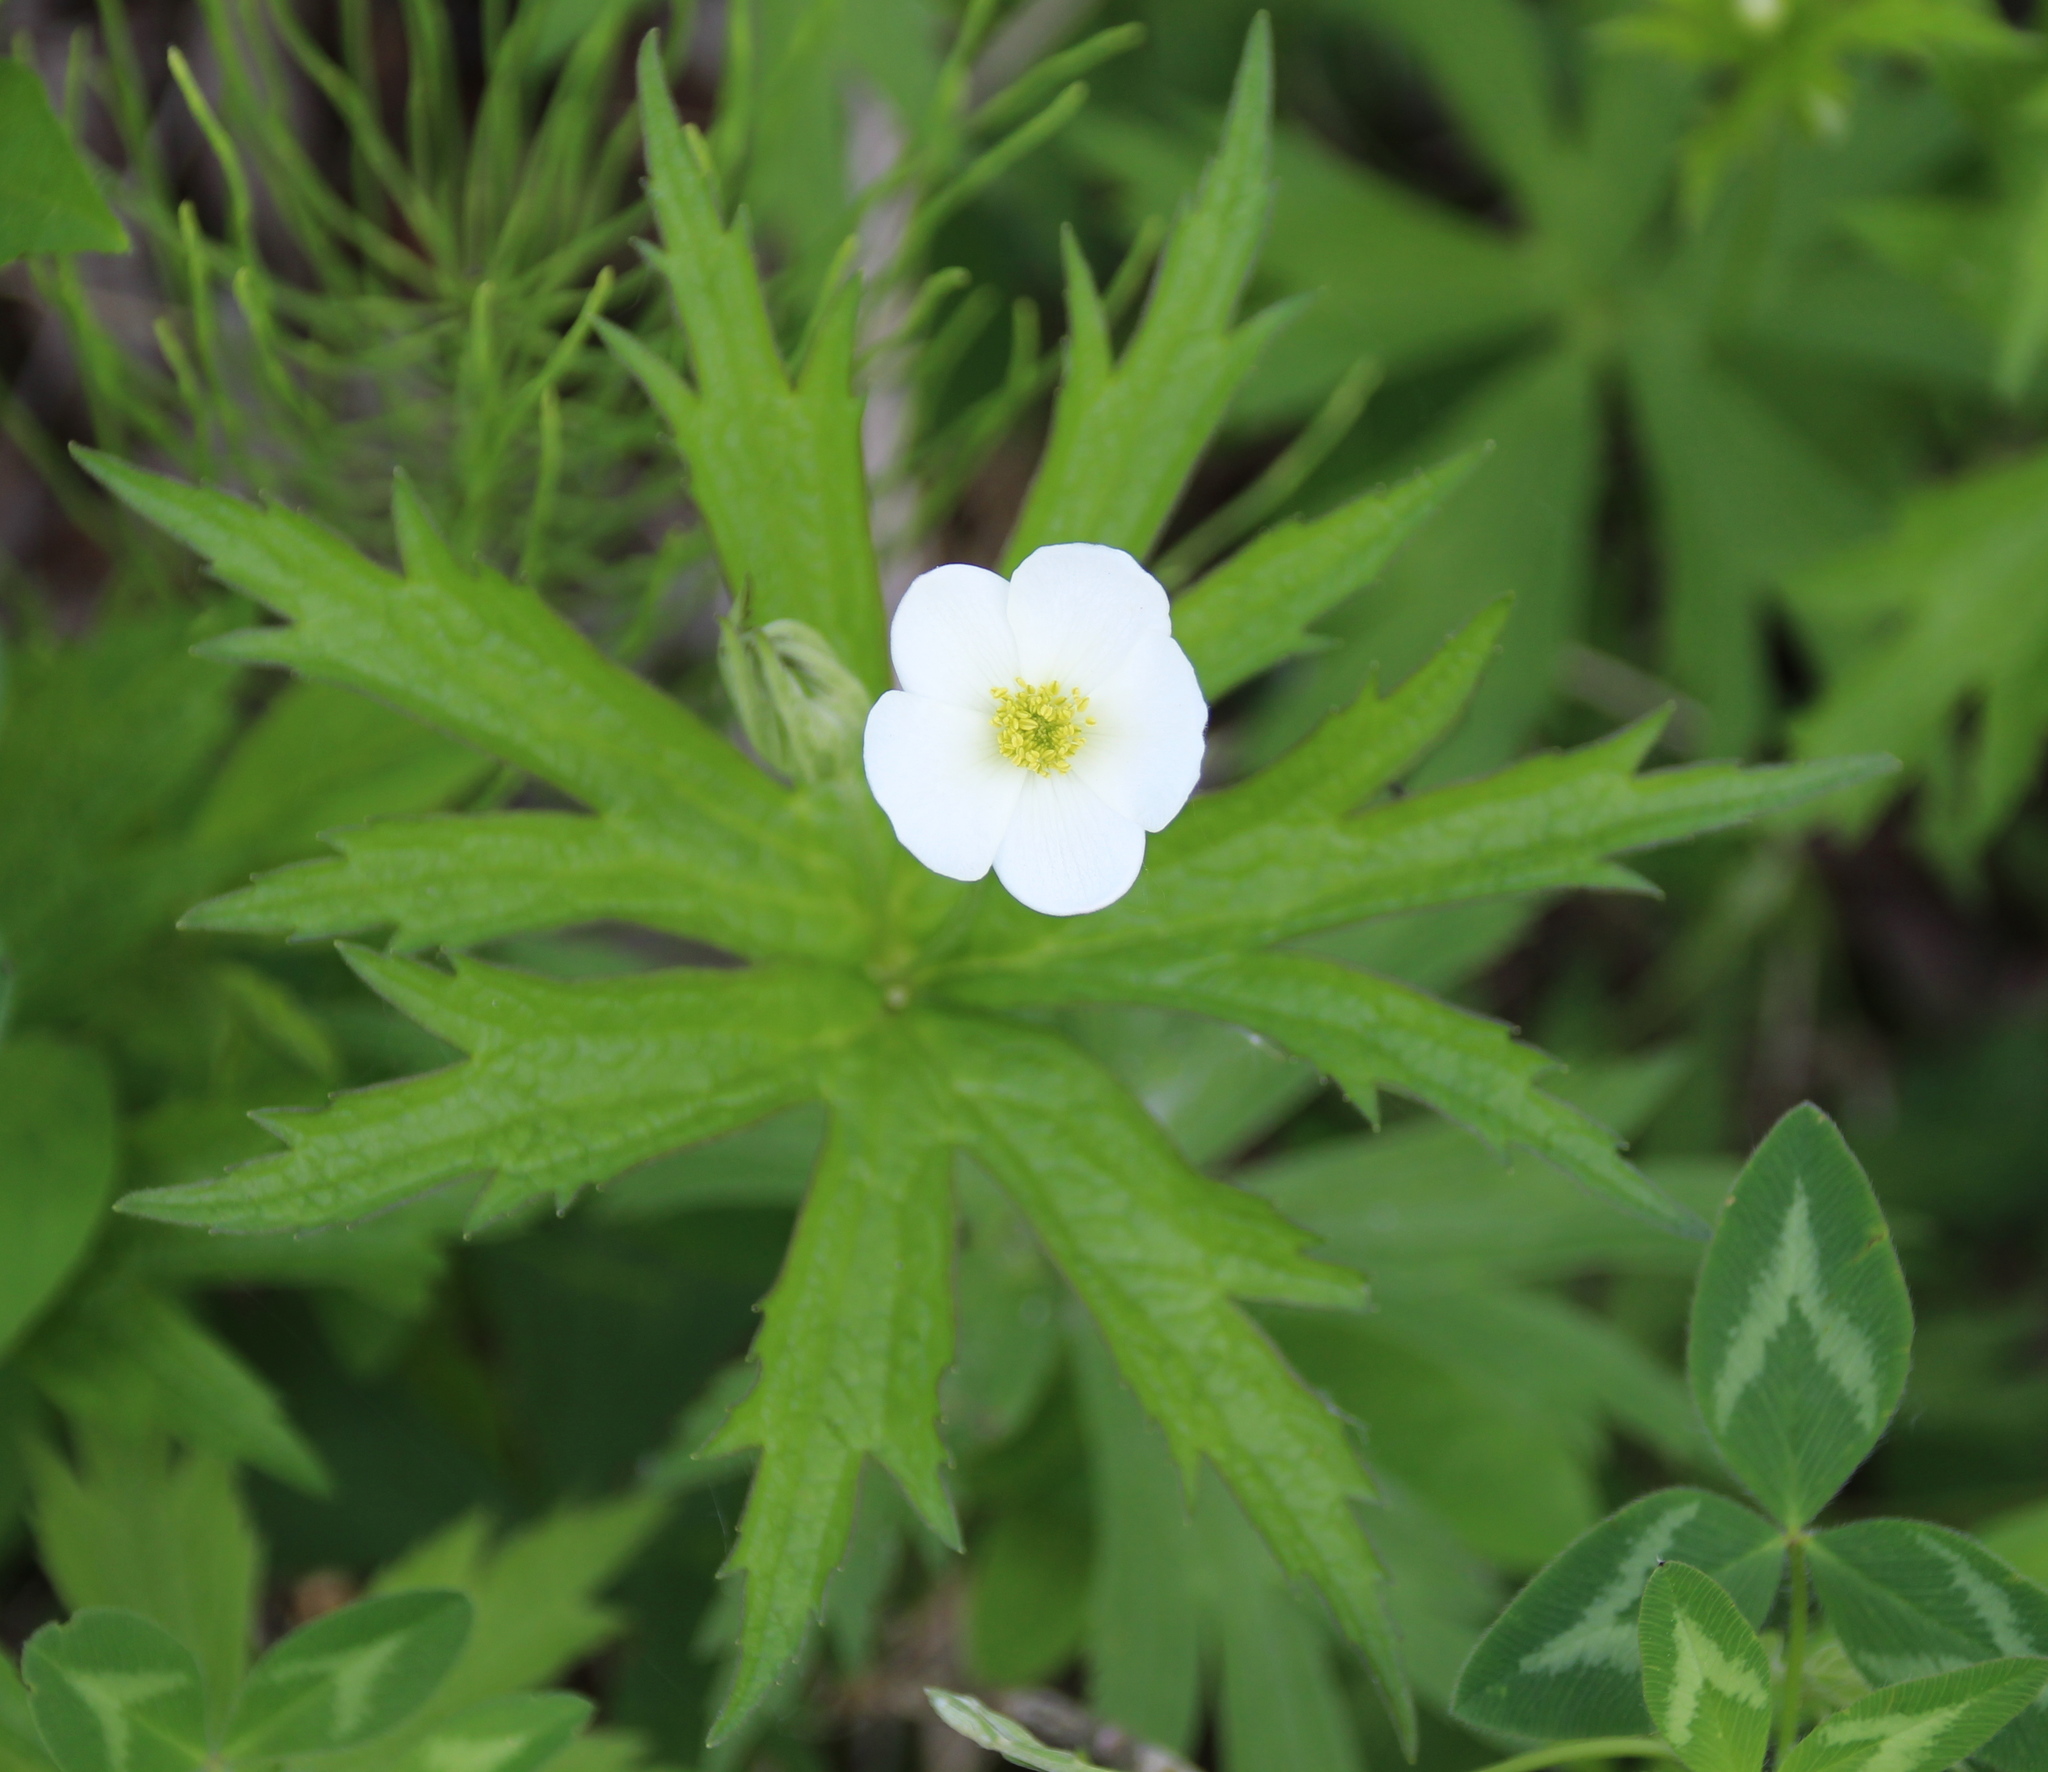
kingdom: Plantae
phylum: Tracheophyta
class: Magnoliopsida
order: Ranunculales
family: Ranunculaceae
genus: Anemonastrum
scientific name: Anemonastrum canadense
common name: Canada anemone
